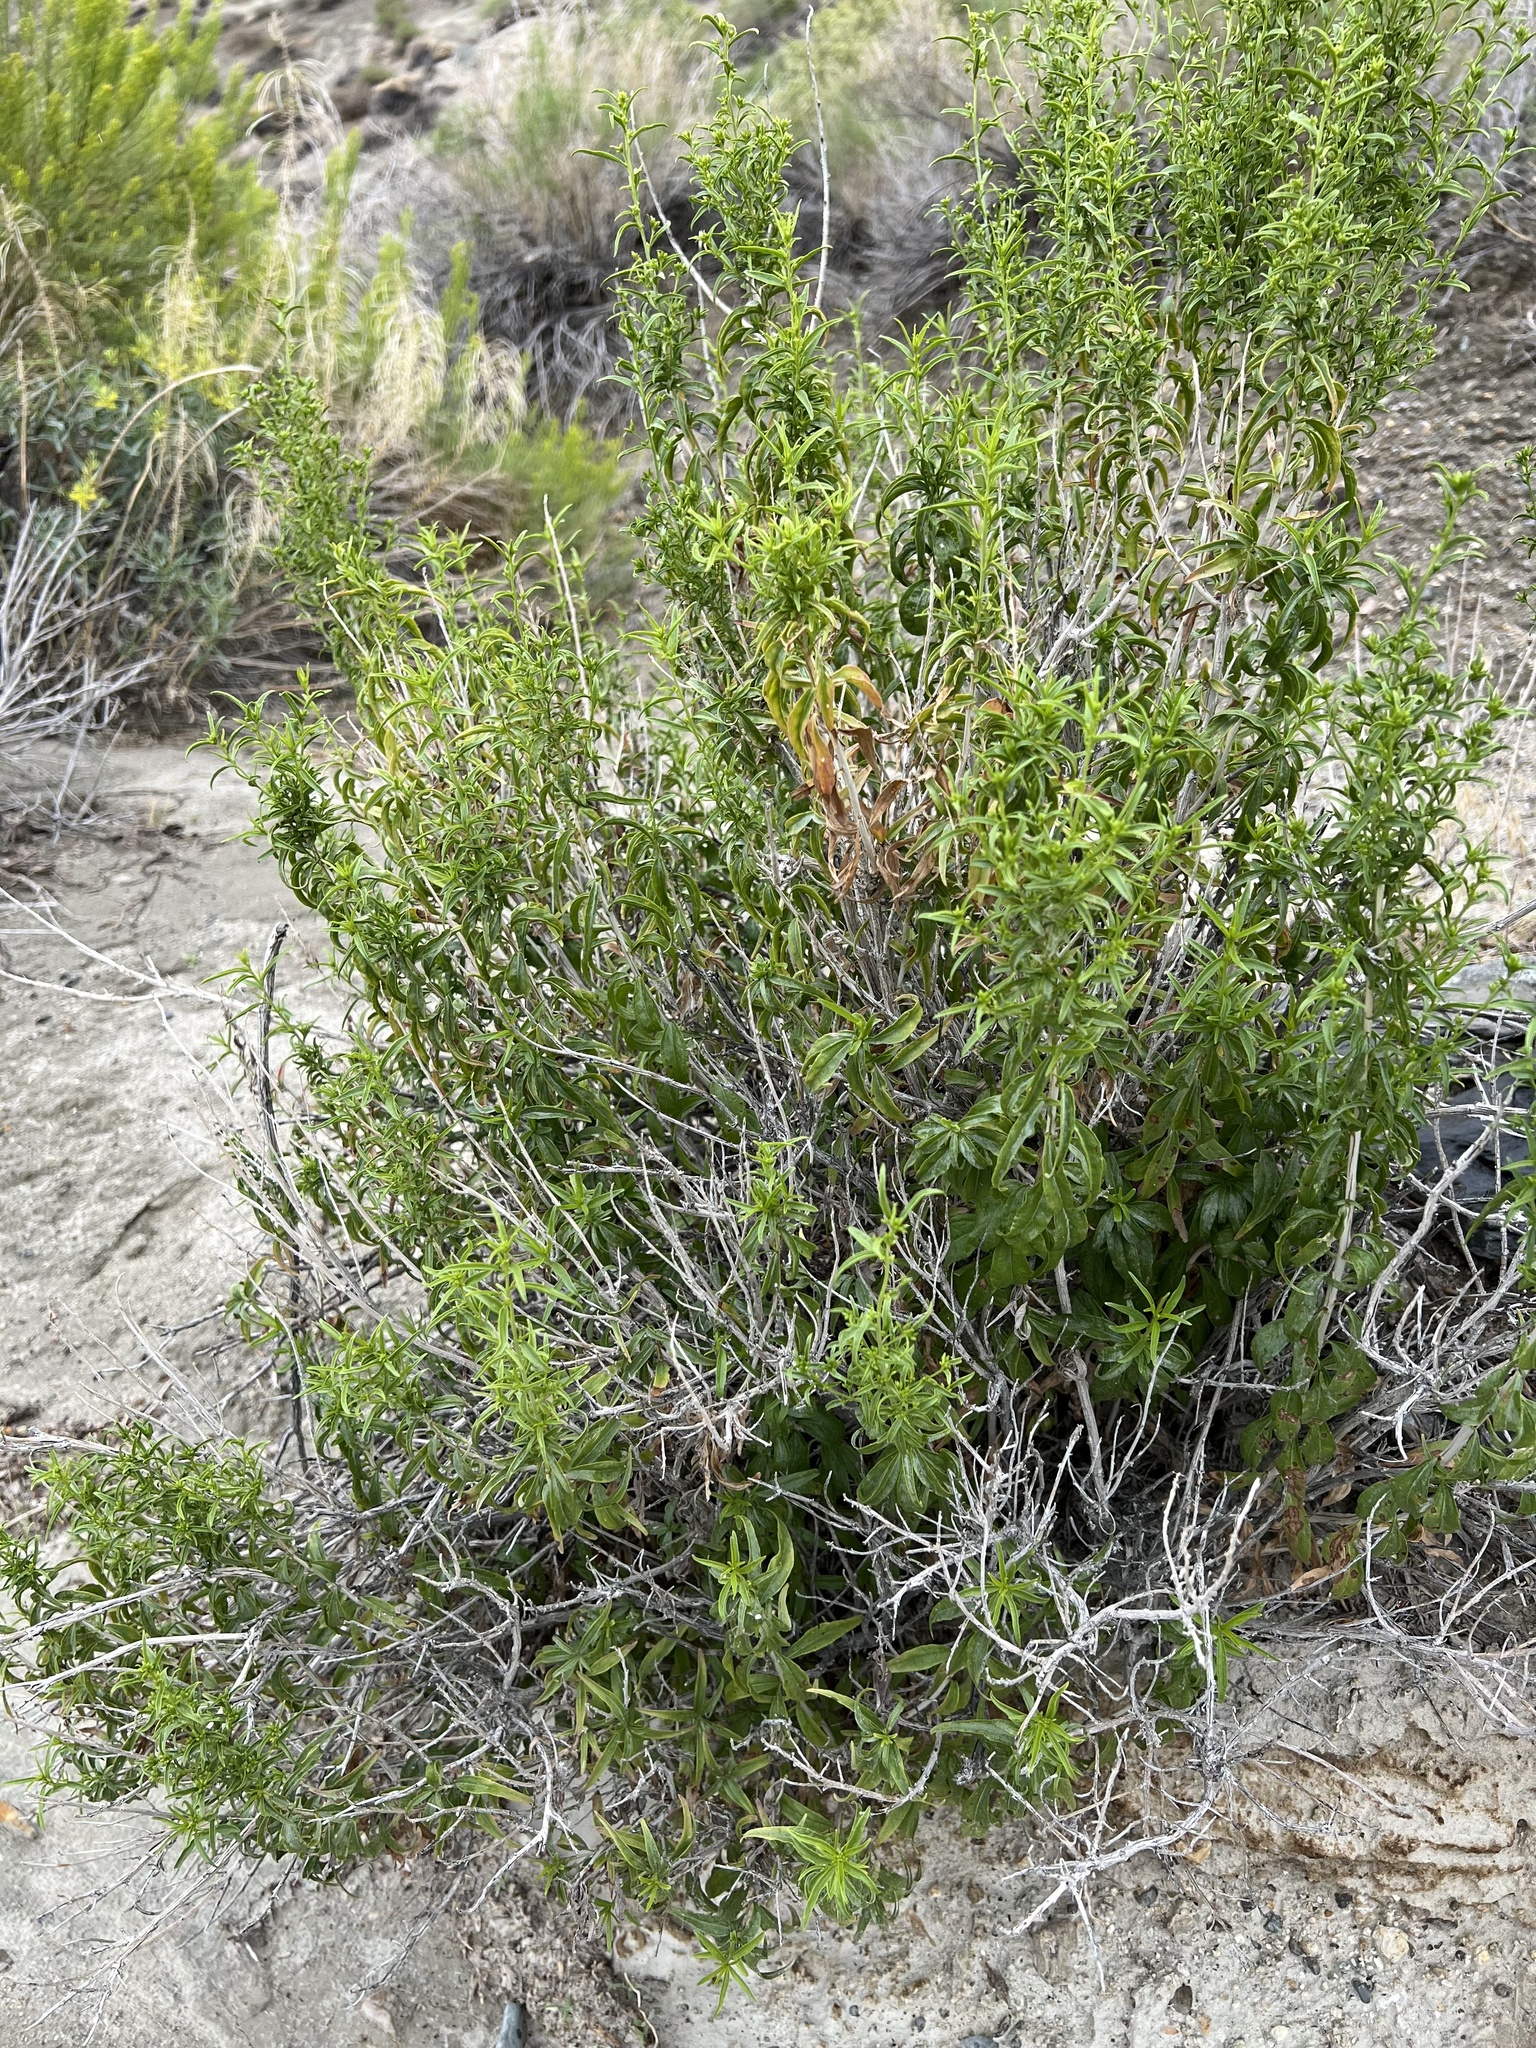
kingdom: Plantae
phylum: Tracheophyta
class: Magnoliopsida
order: Asterales
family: Asteraceae
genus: Brickellia
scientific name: Brickellia longifolia
